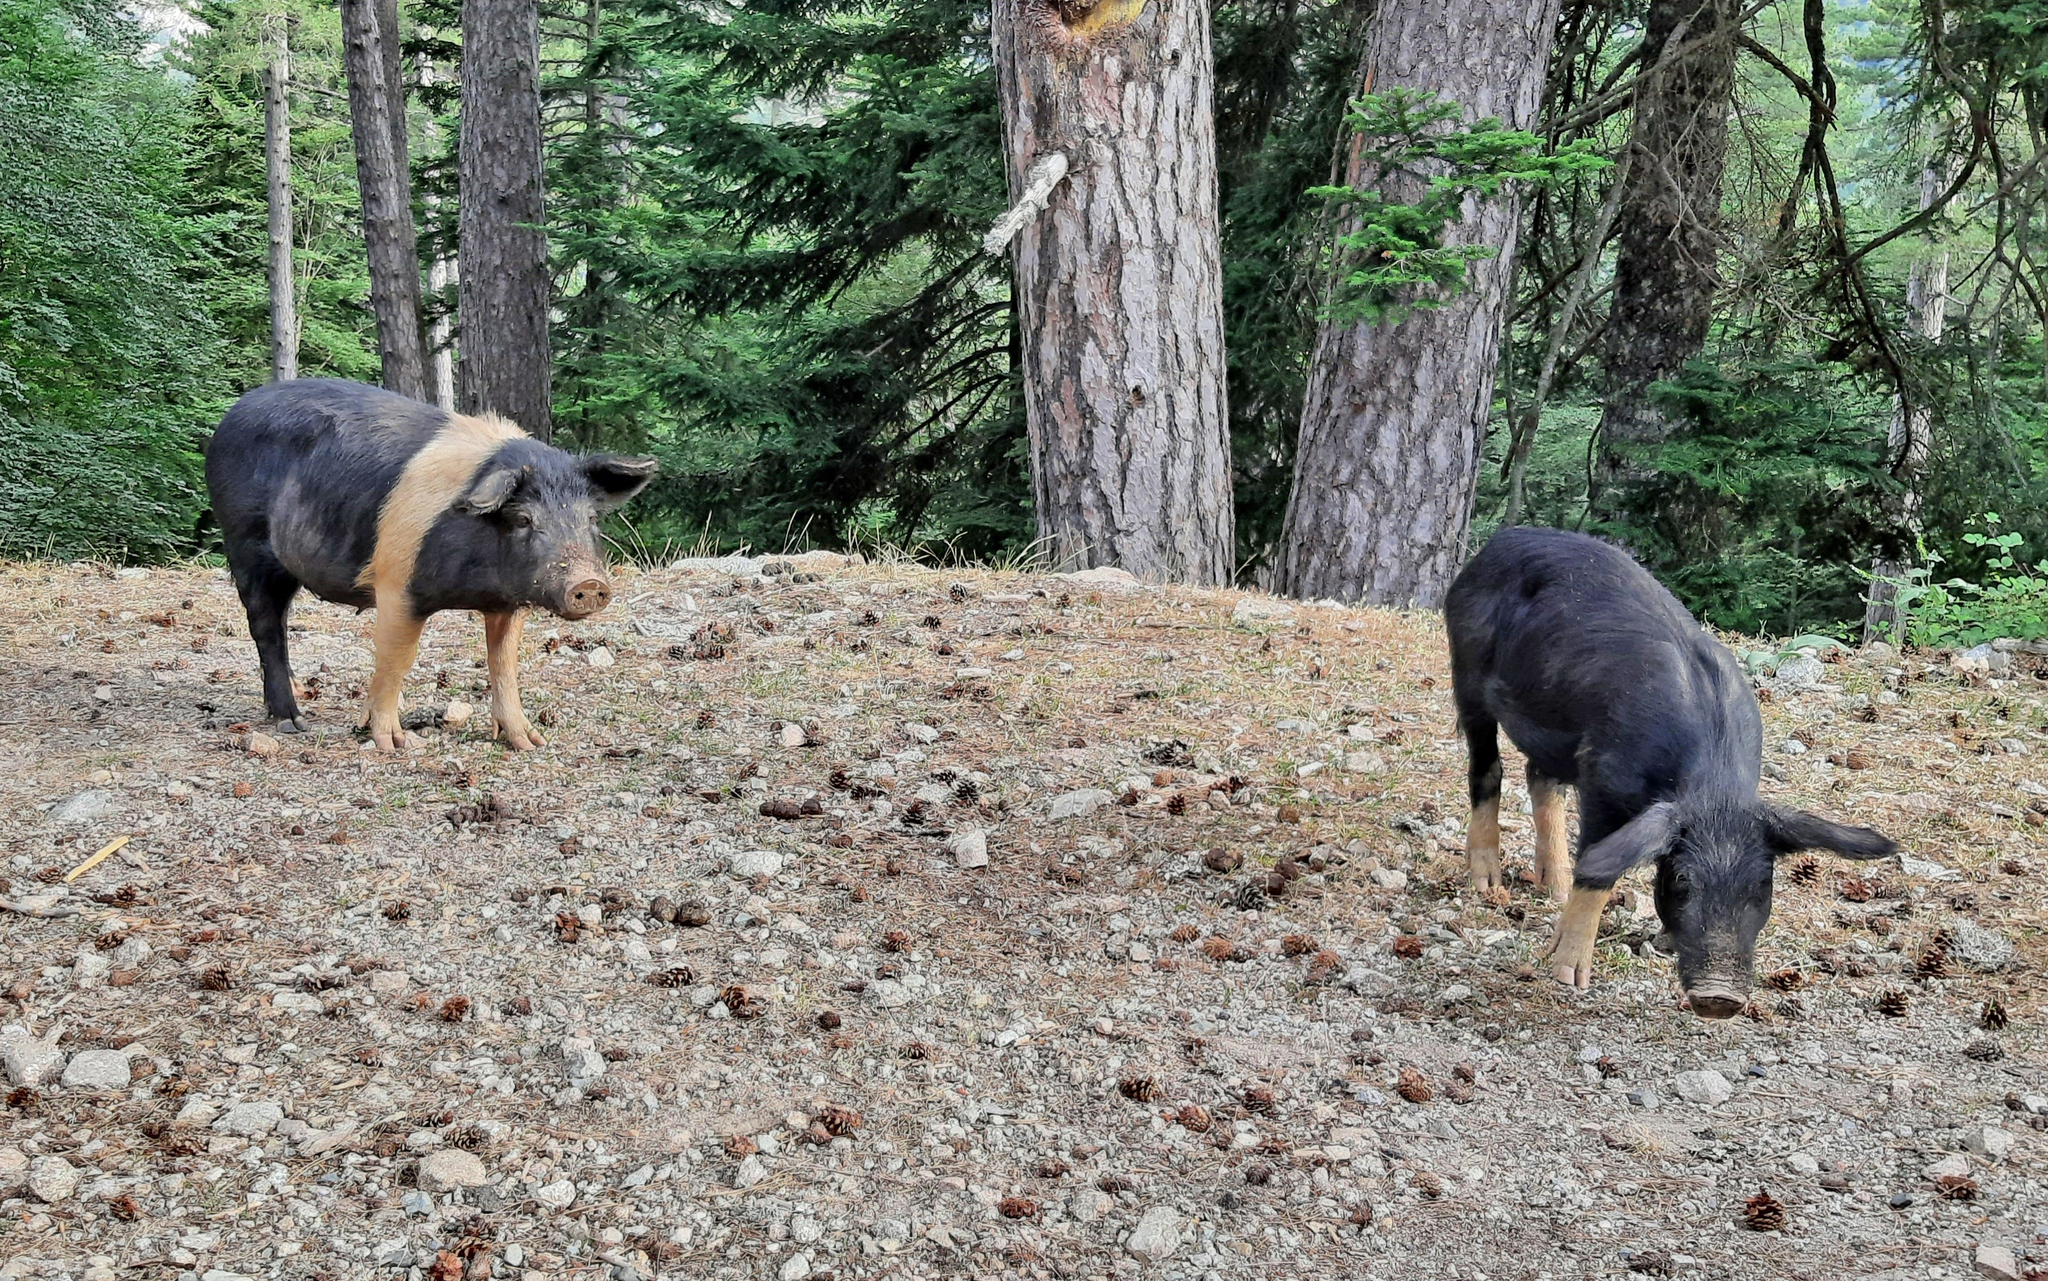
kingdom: Animalia
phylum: Chordata
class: Mammalia
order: Artiodactyla
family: Suidae
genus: Sus
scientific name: Sus scrofa
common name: Wild boar
